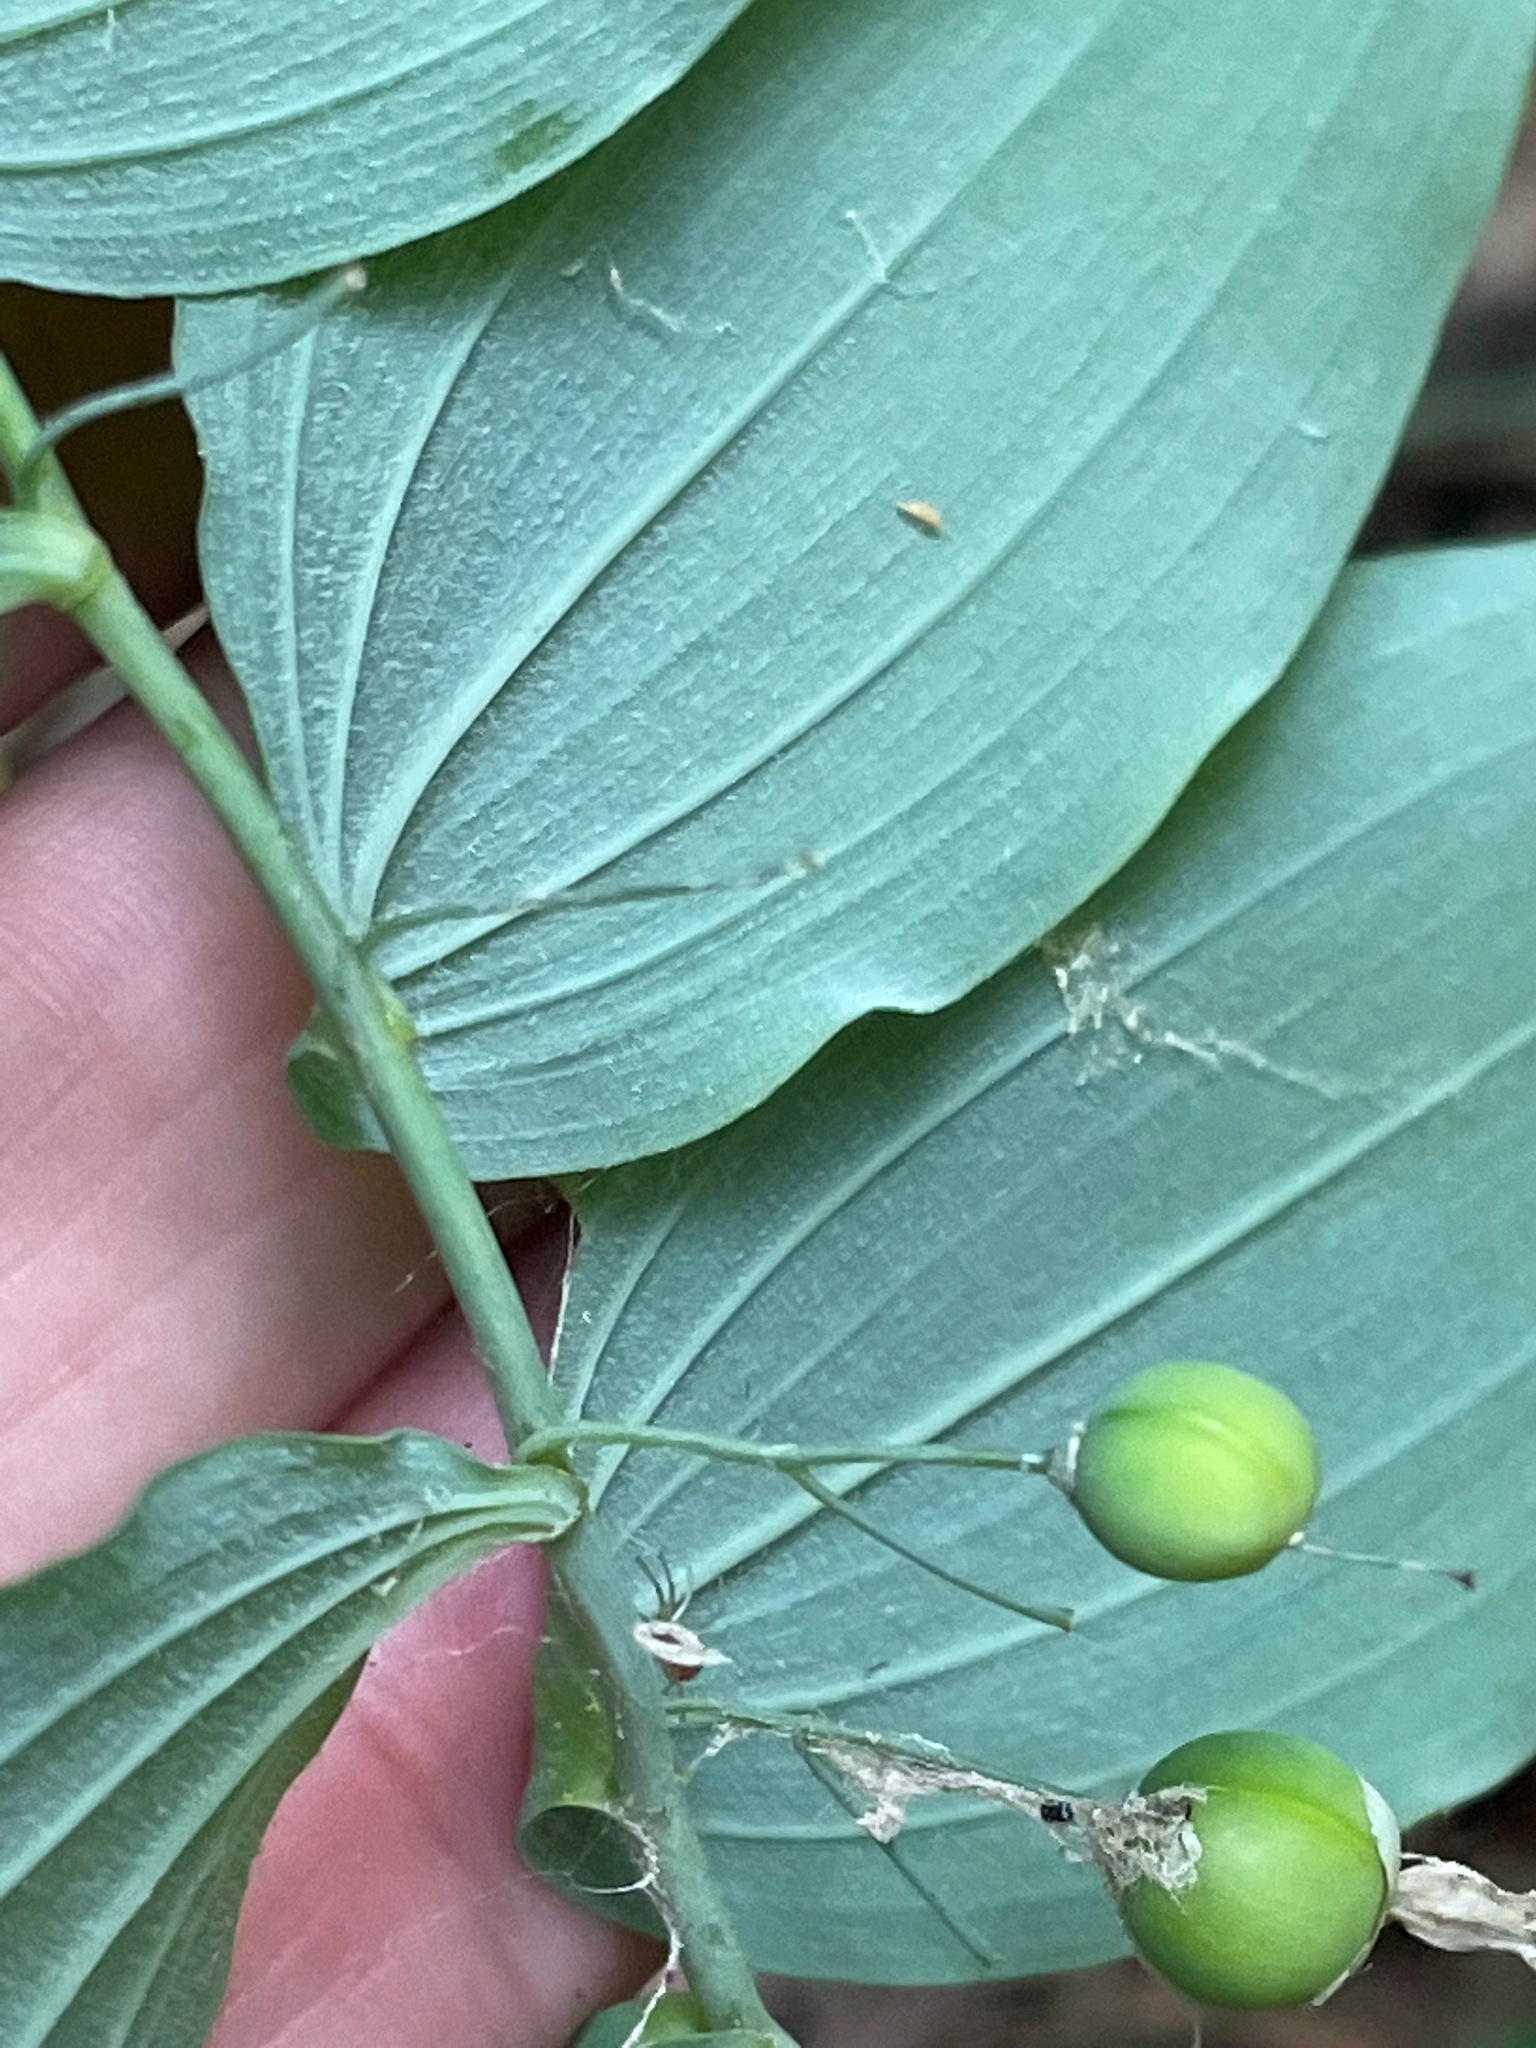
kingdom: Plantae
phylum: Tracheophyta
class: Liliopsida
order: Asparagales
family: Asparagaceae
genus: Polygonatum
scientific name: Polygonatum pubescens
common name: Downy solomon's seal
